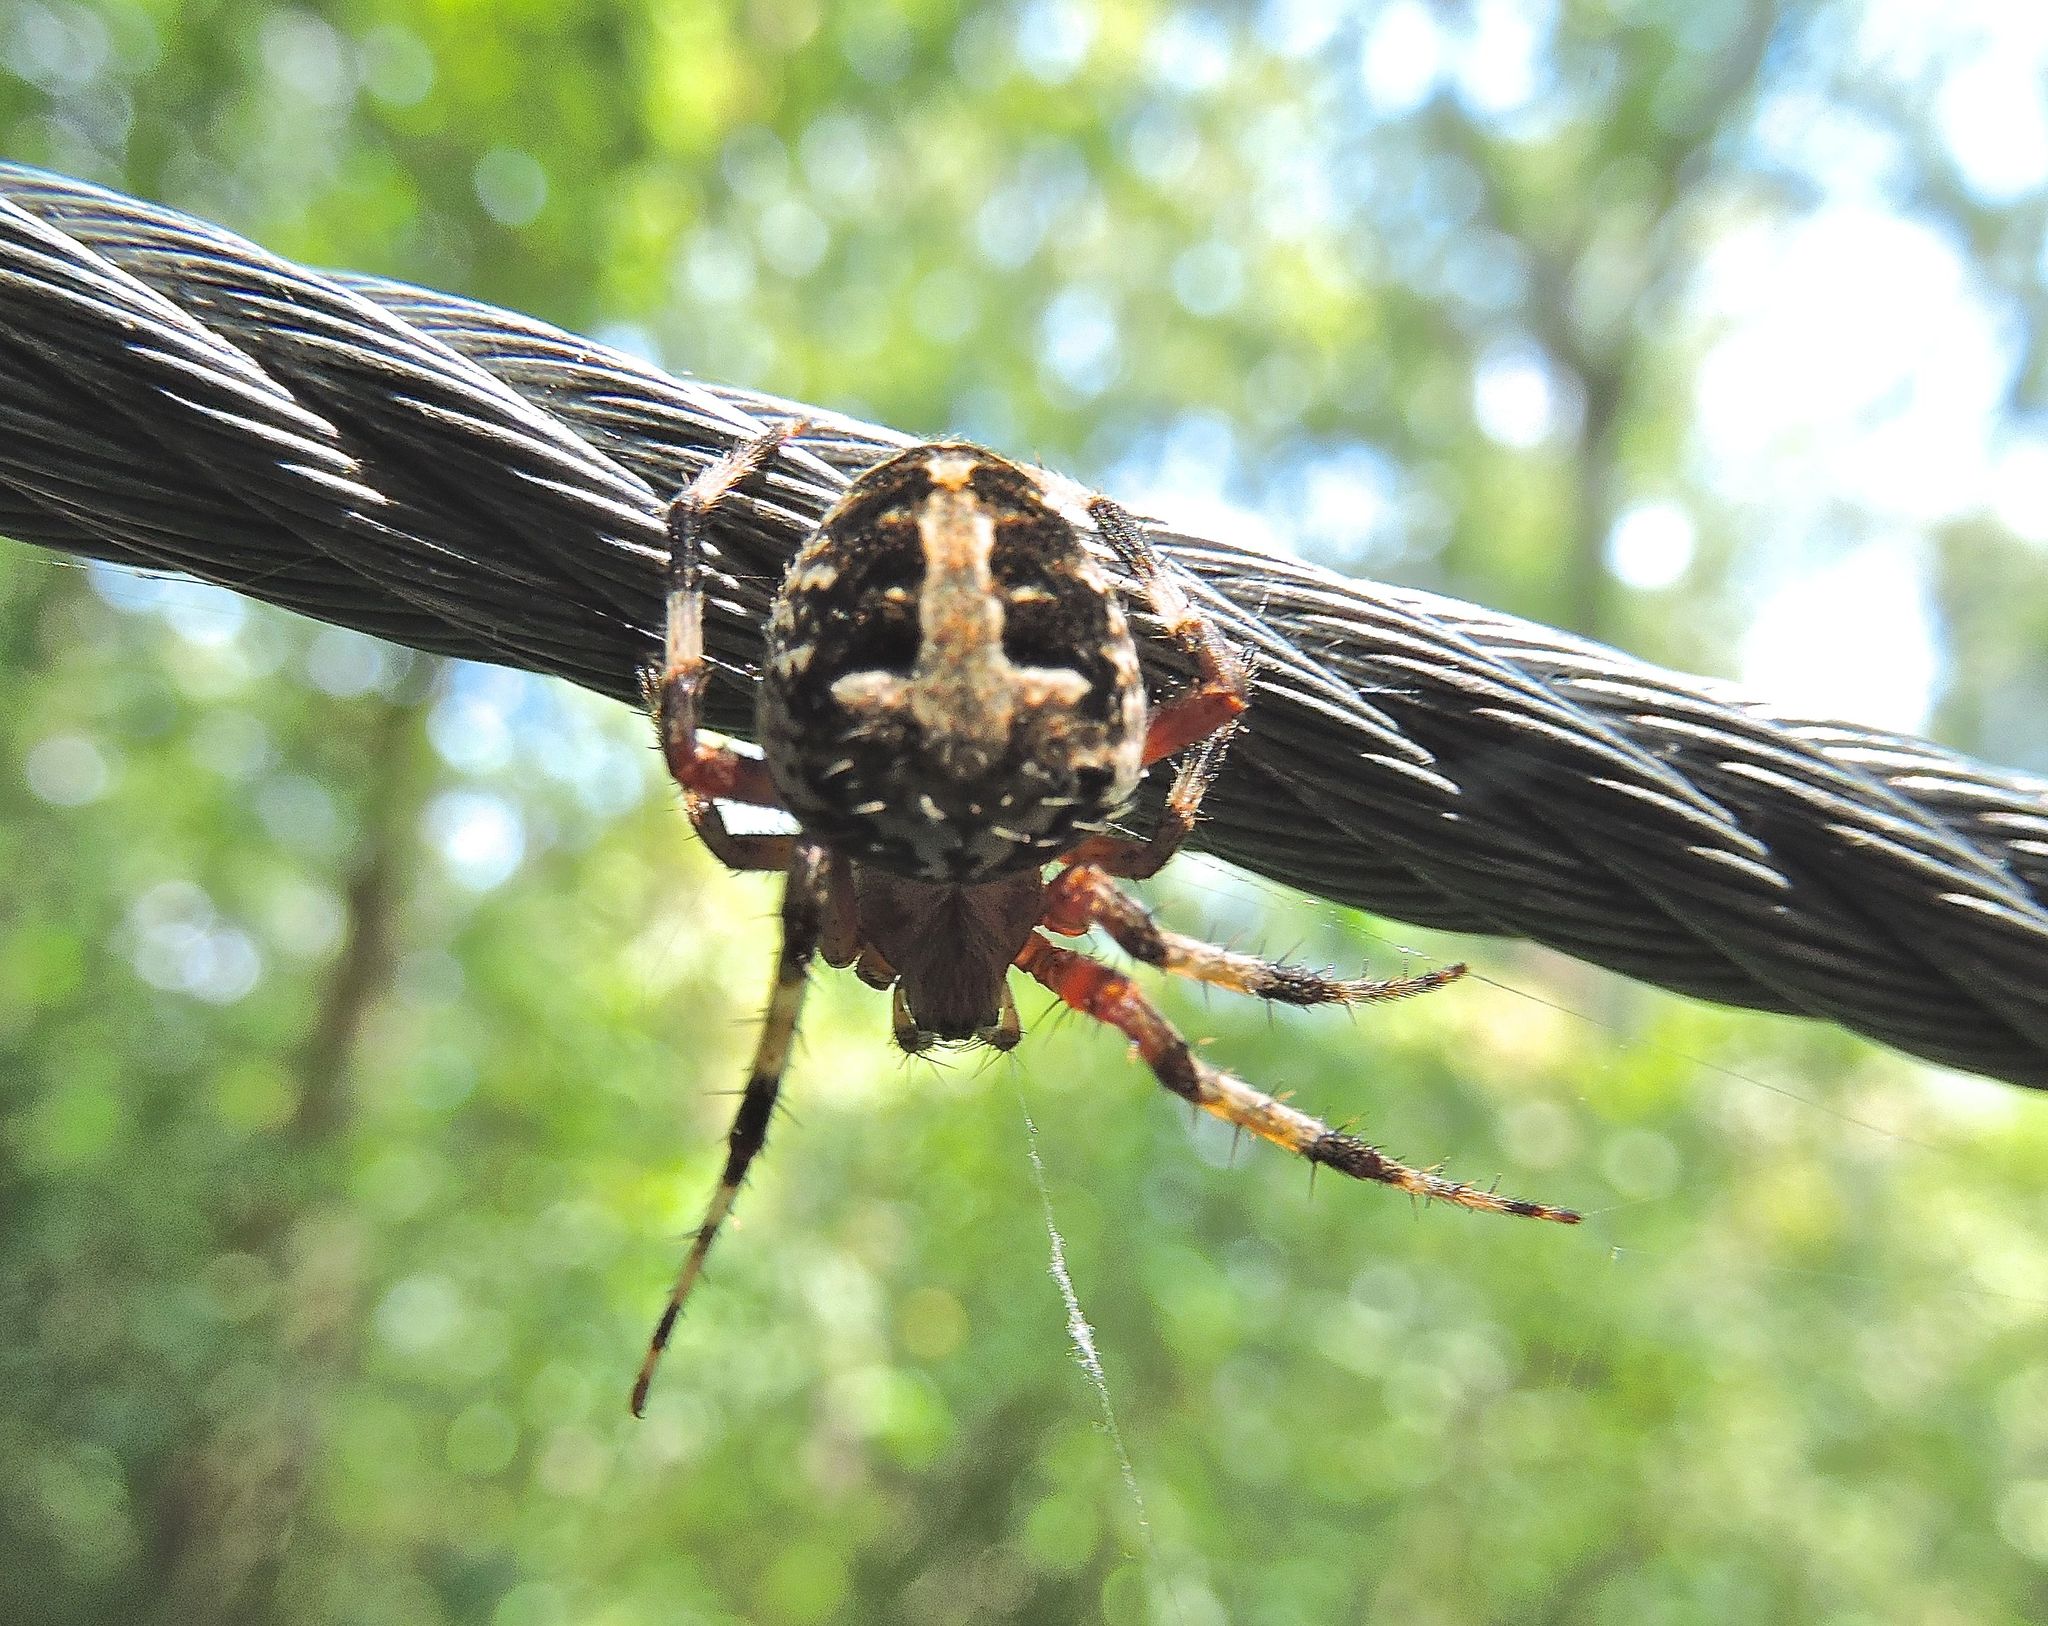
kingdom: Animalia
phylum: Arthropoda
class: Arachnida
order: Araneae
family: Araneidae
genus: Neoscona
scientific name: Neoscona domiciliorum
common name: Red-femured spotted orbweaver
